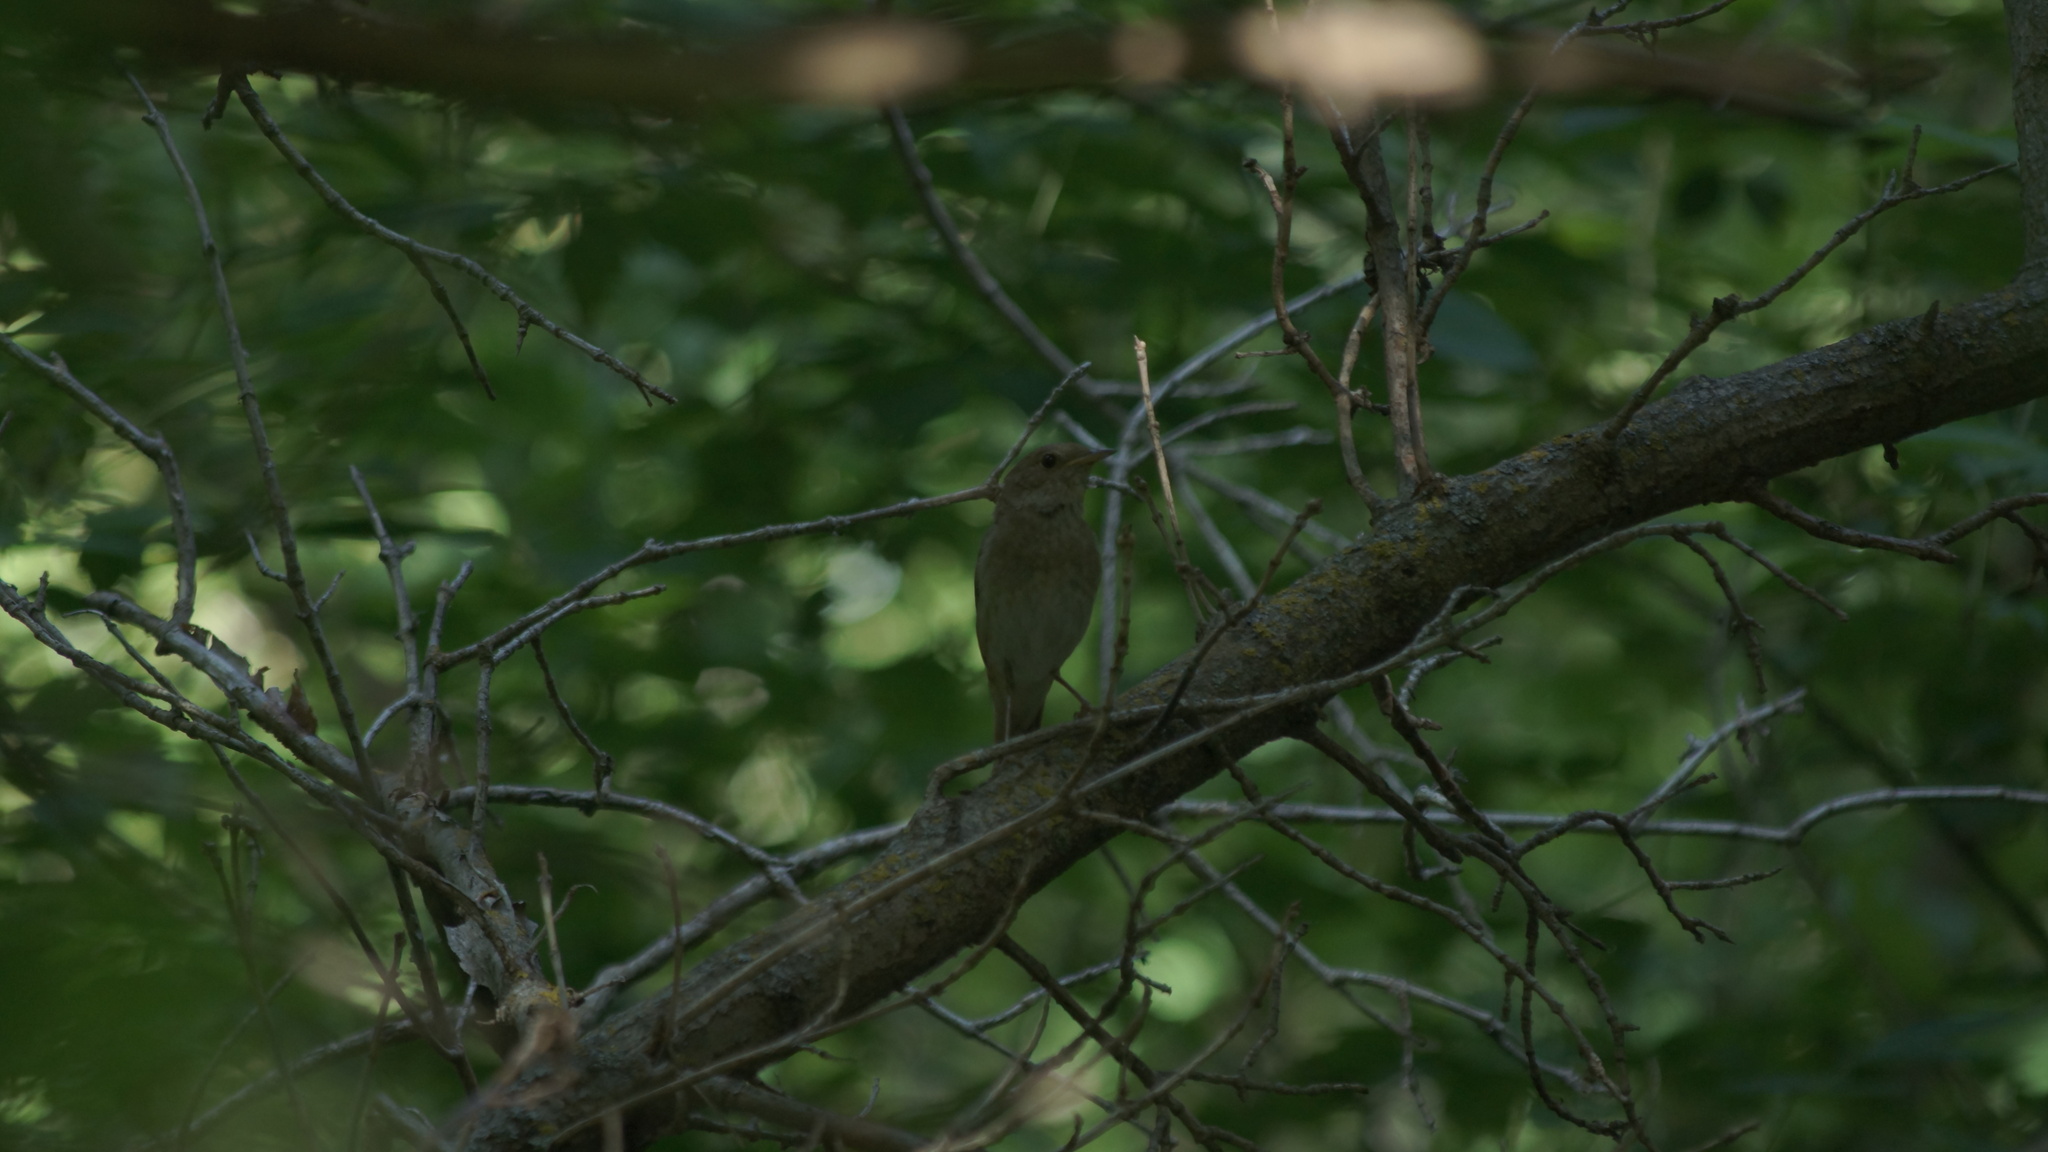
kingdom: Animalia
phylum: Chordata
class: Aves
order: Passeriformes
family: Muscicapidae
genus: Luscinia
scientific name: Luscinia luscinia
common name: Thrush nightingale
